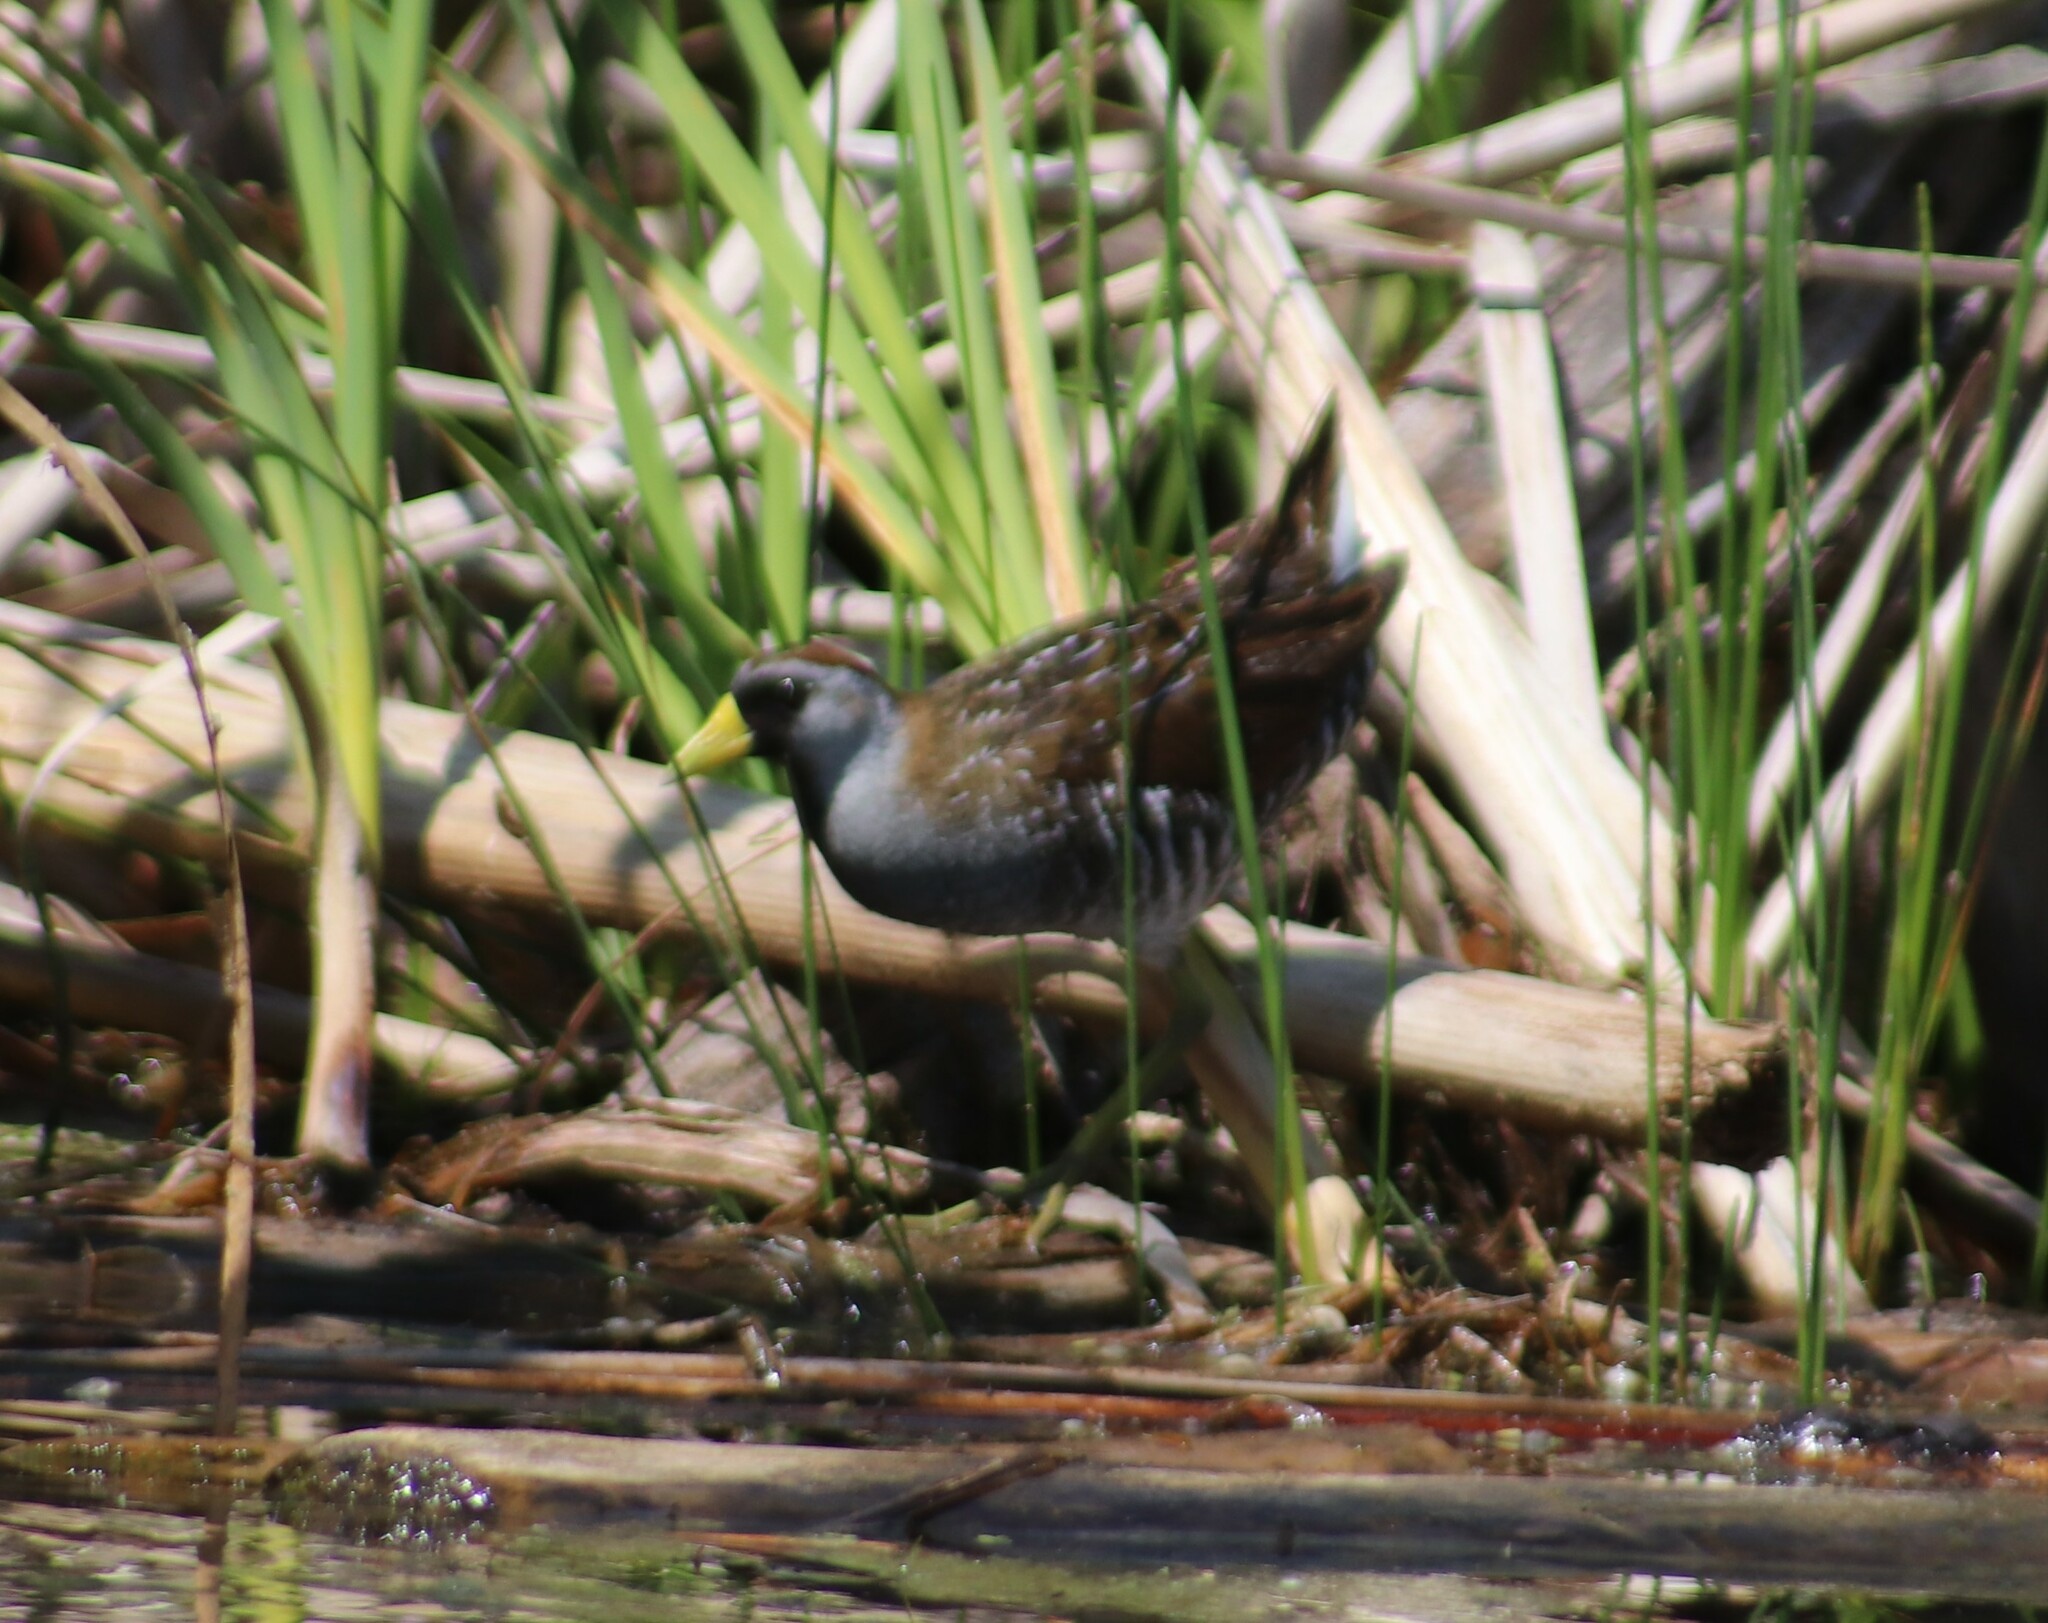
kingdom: Animalia
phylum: Chordata
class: Aves
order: Gruiformes
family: Rallidae
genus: Porzana
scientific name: Porzana carolina
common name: Sora
